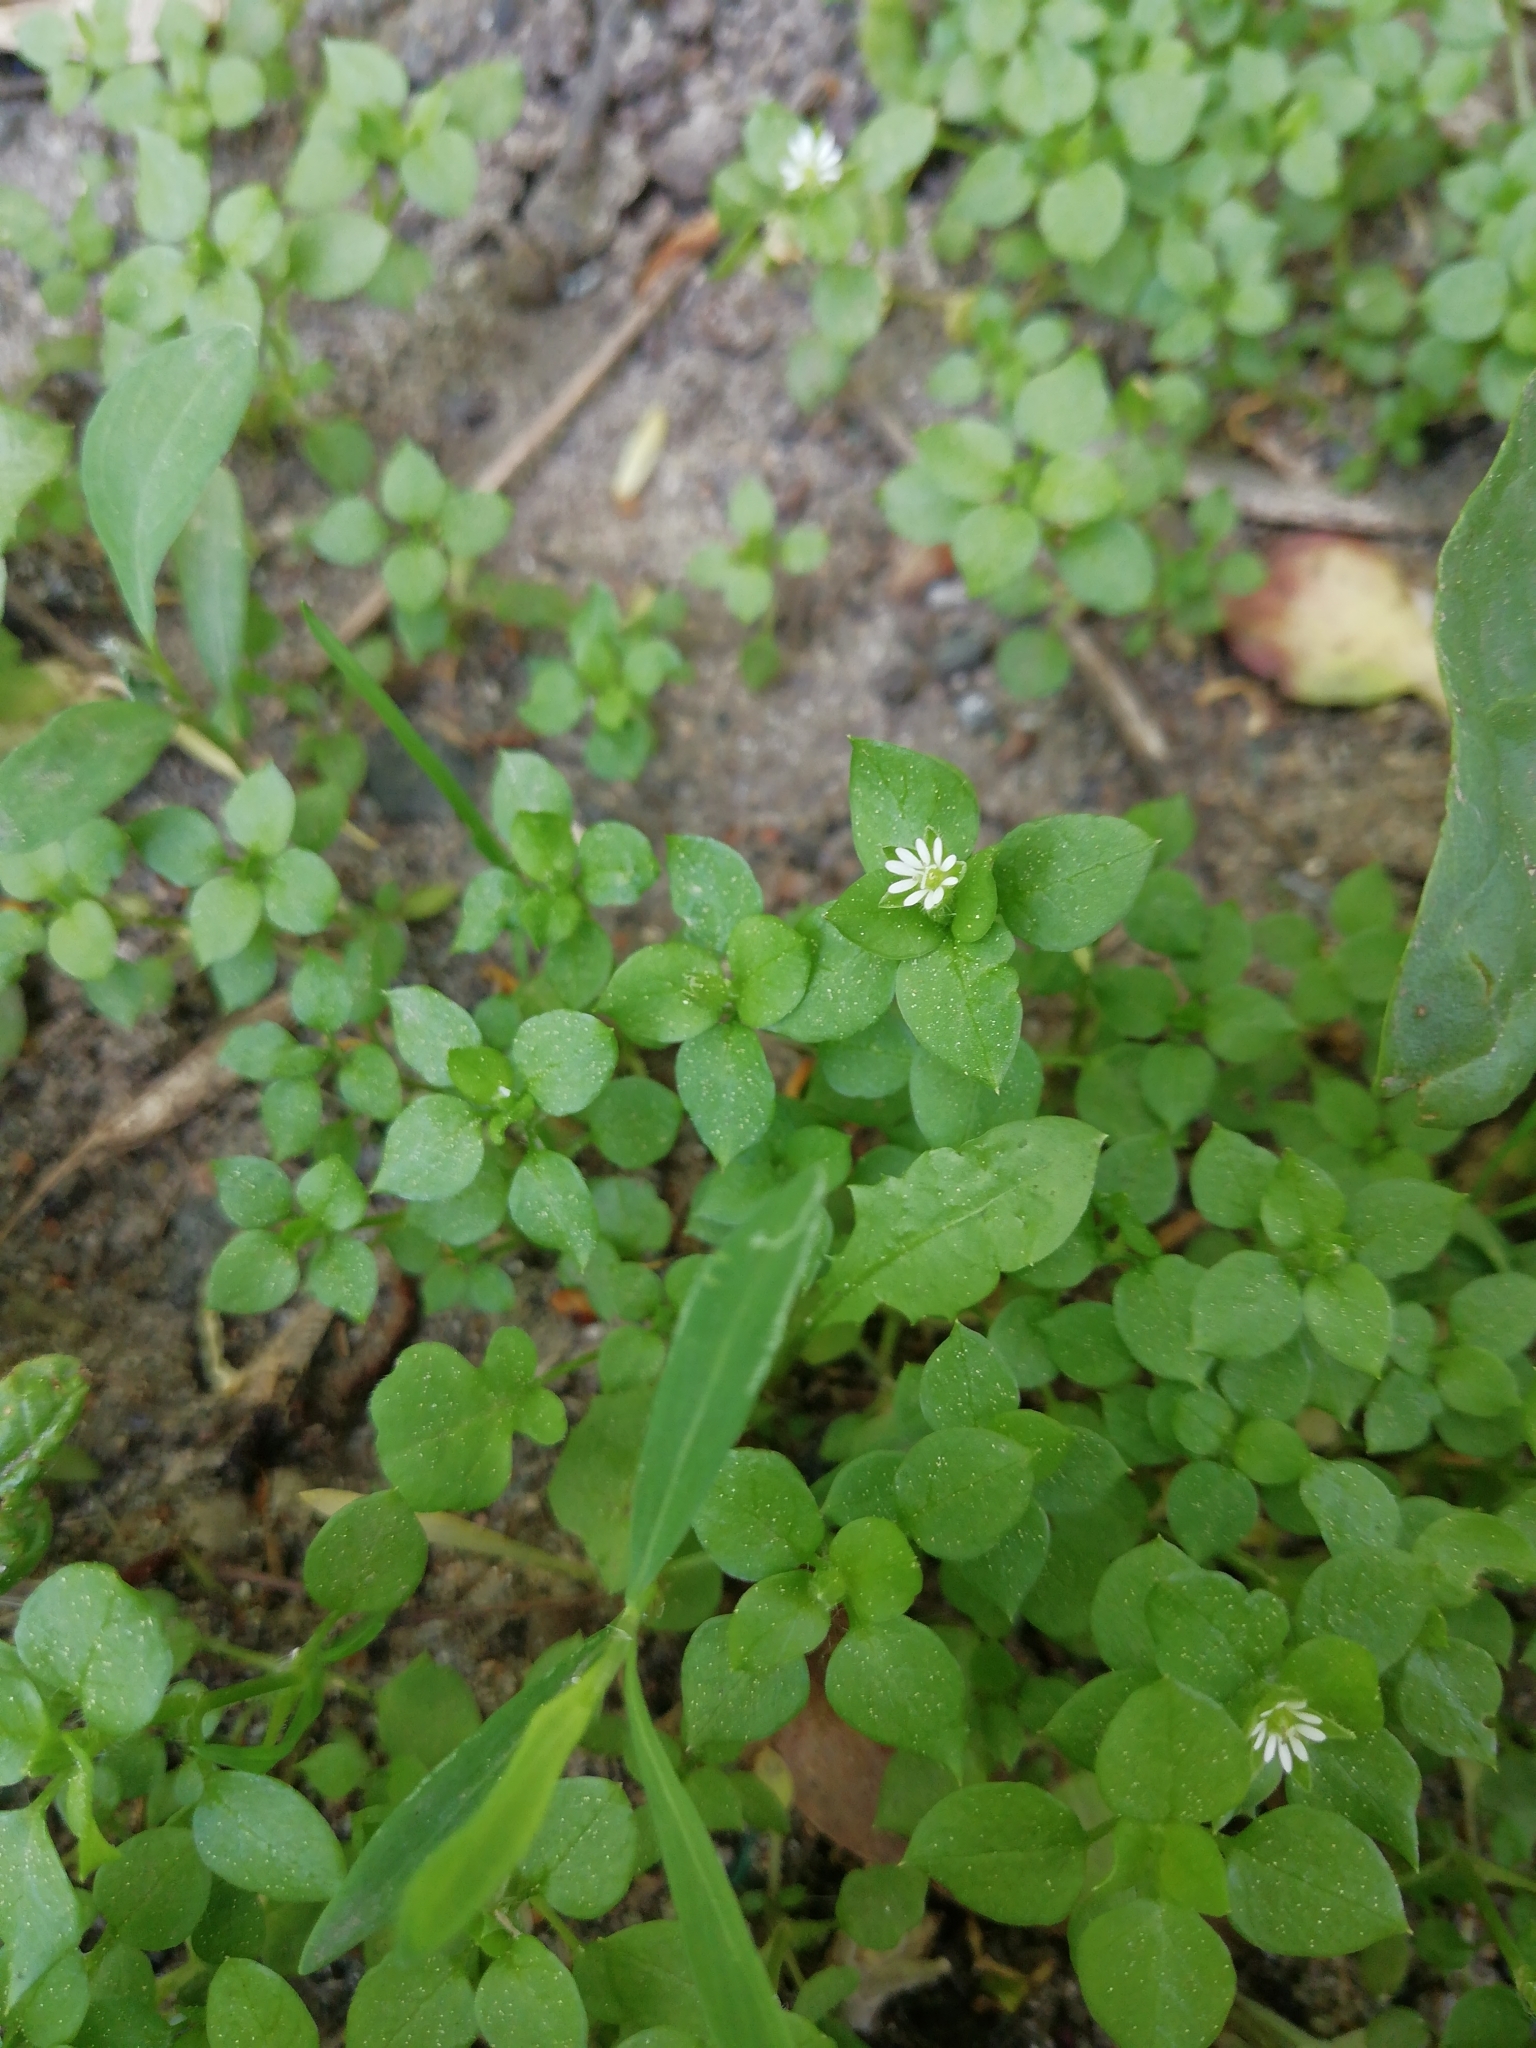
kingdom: Plantae
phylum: Tracheophyta
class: Magnoliopsida
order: Caryophyllales
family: Caryophyllaceae
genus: Stellaria
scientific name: Stellaria media
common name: Common chickweed
